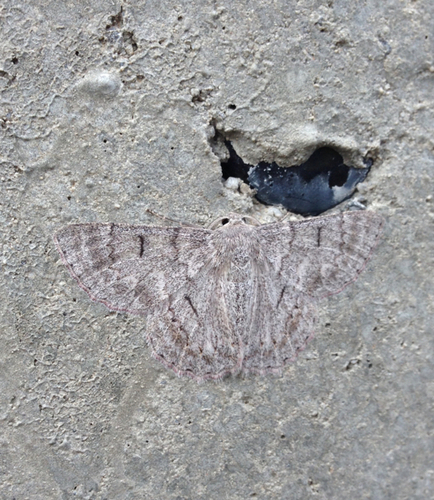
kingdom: Animalia
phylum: Arthropoda
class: Insecta
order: Lepidoptera
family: Geometridae
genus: Crypsiphona
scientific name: Crypsiphona ocultaria
